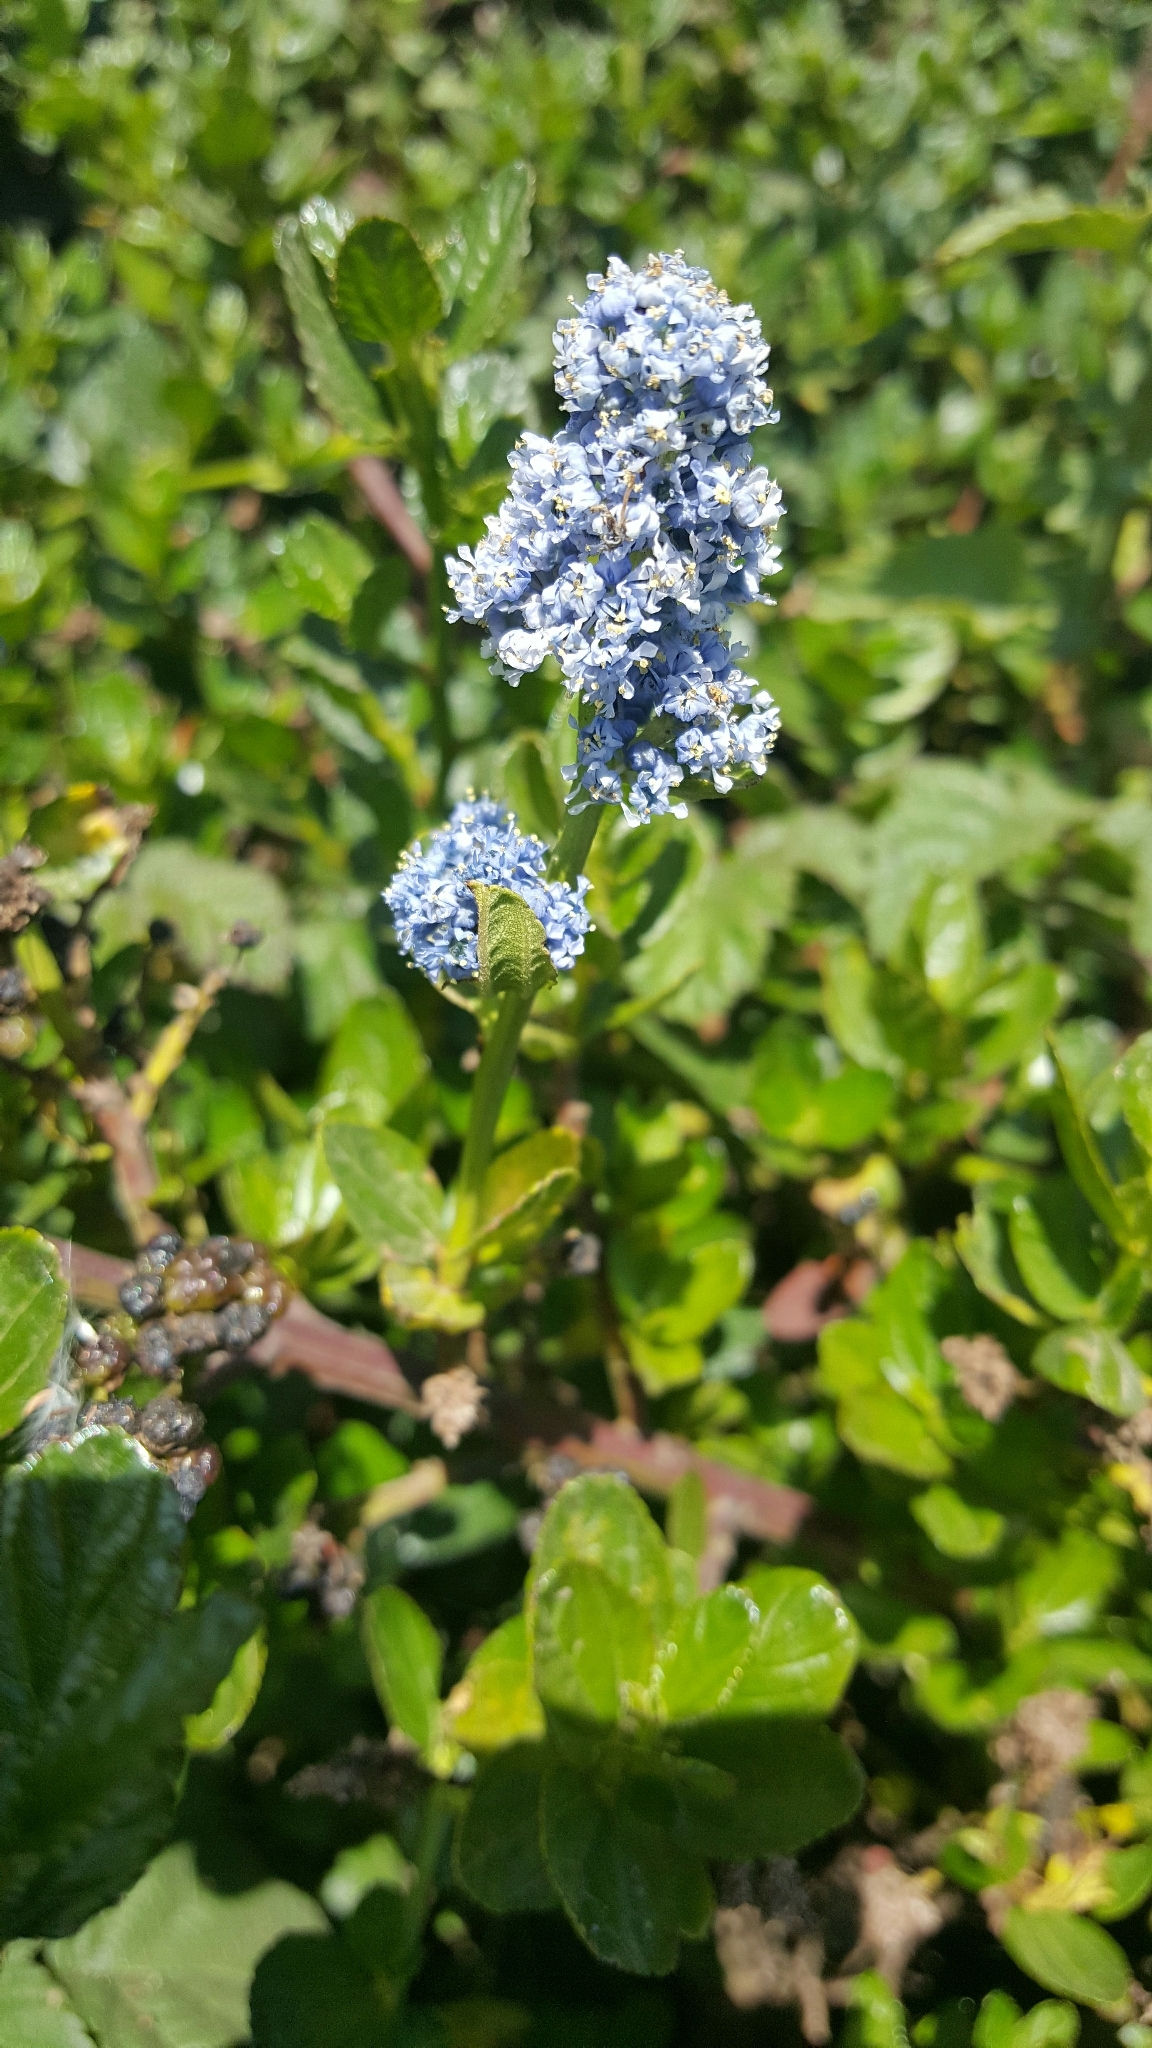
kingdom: Plantae
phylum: Tracheophyta
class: Magnoliopsida
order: Rosales
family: Rhamnaceae
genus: Ceanothus
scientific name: Ceanothus thyrsiflorus
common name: California-lilac
